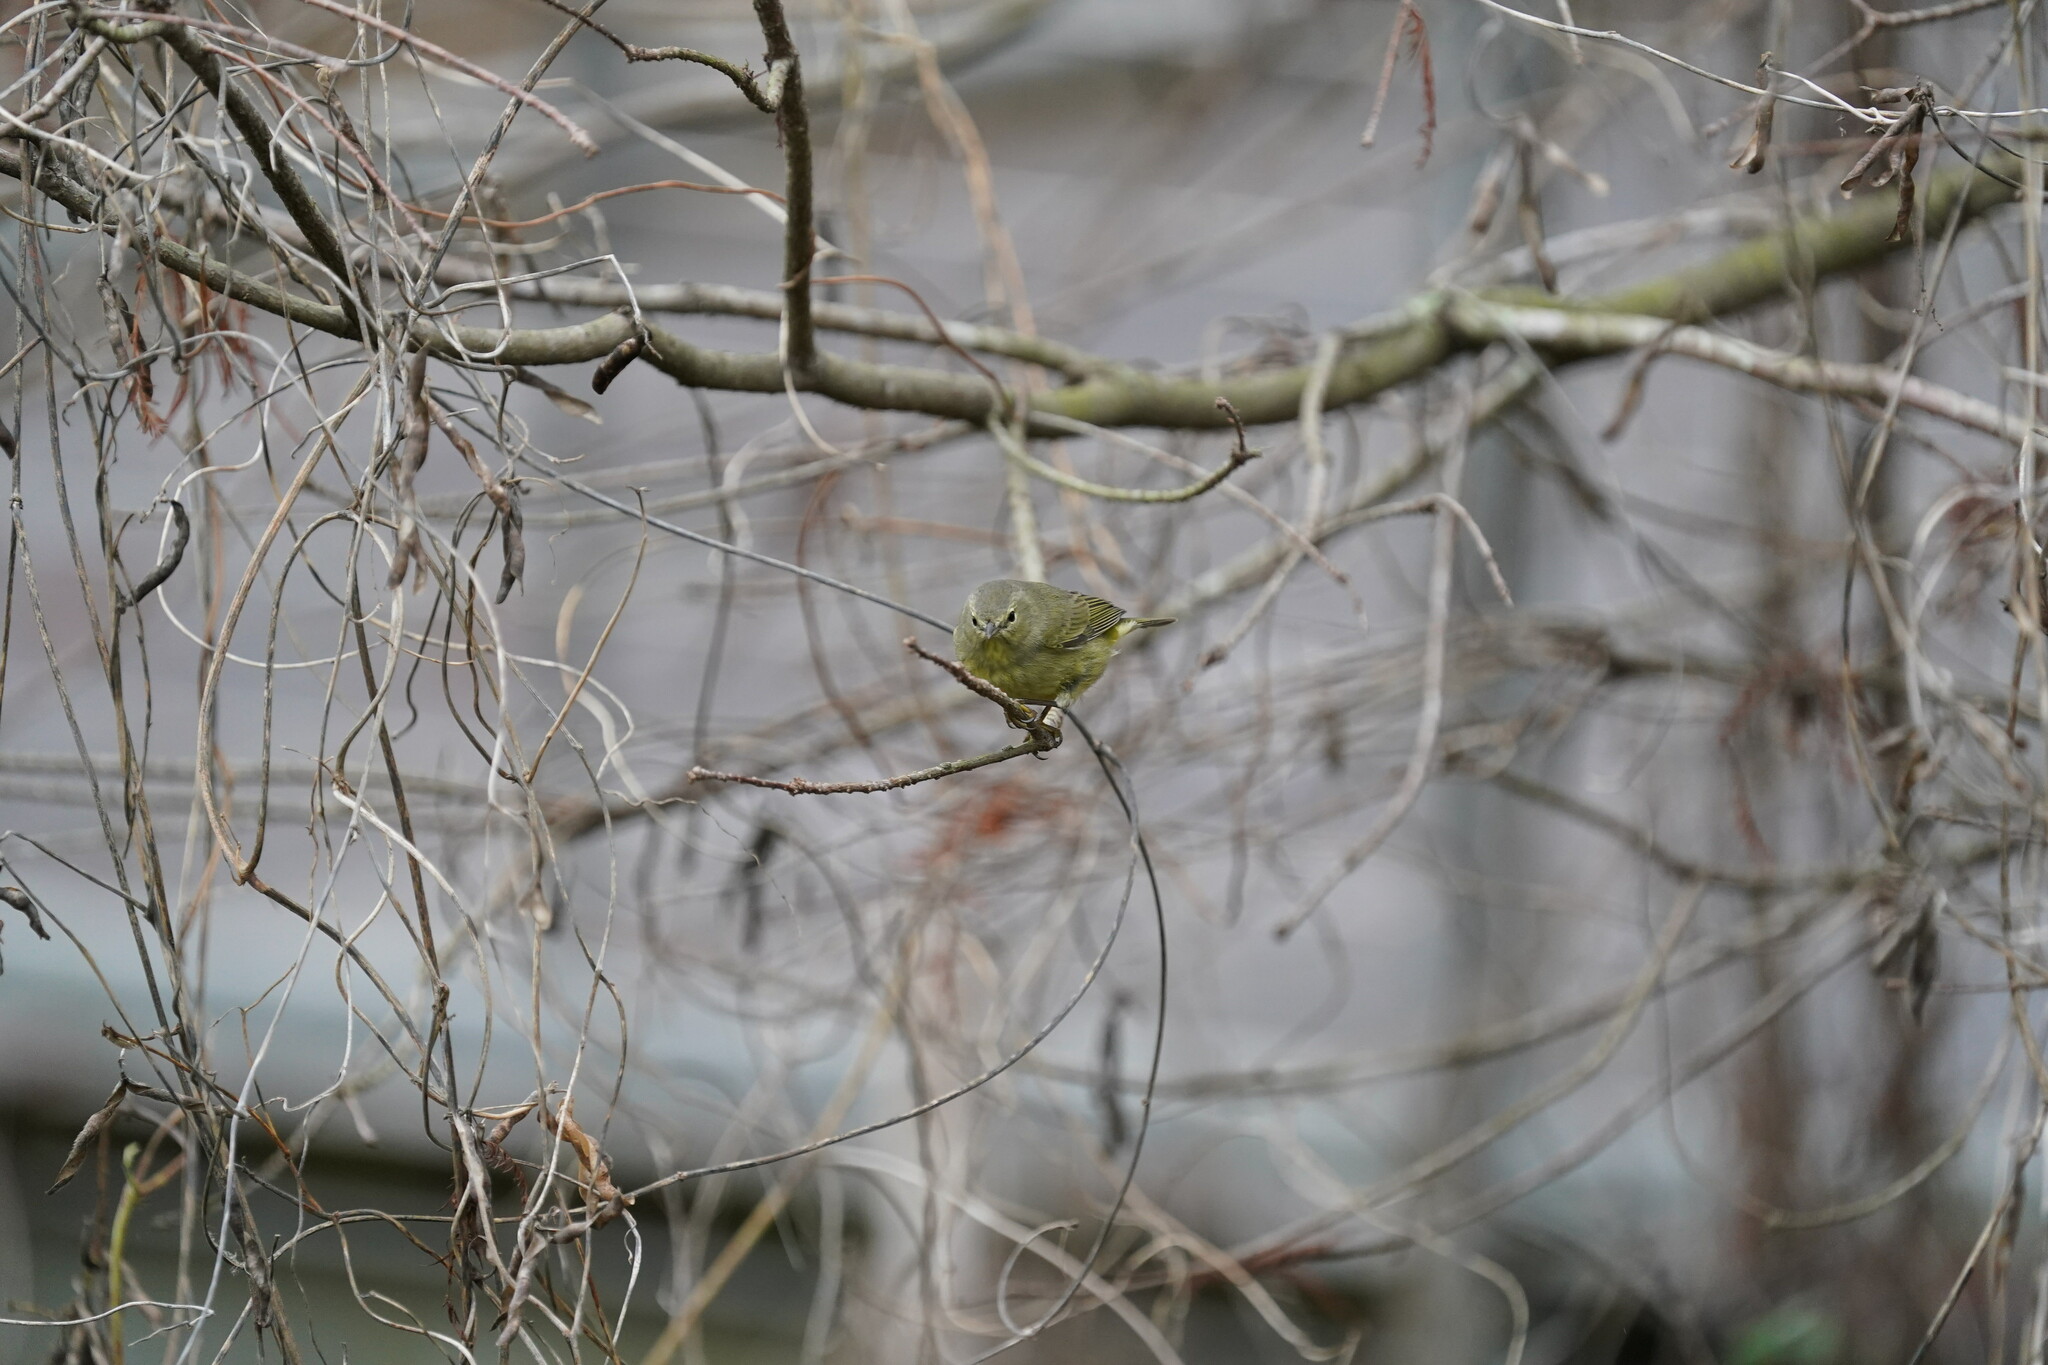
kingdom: Animalia
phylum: Chordata
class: Aves
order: Passeriformes
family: Parulidae
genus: Leiothlypis
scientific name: Leiothlypis celata
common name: Orange-crowned warbler
